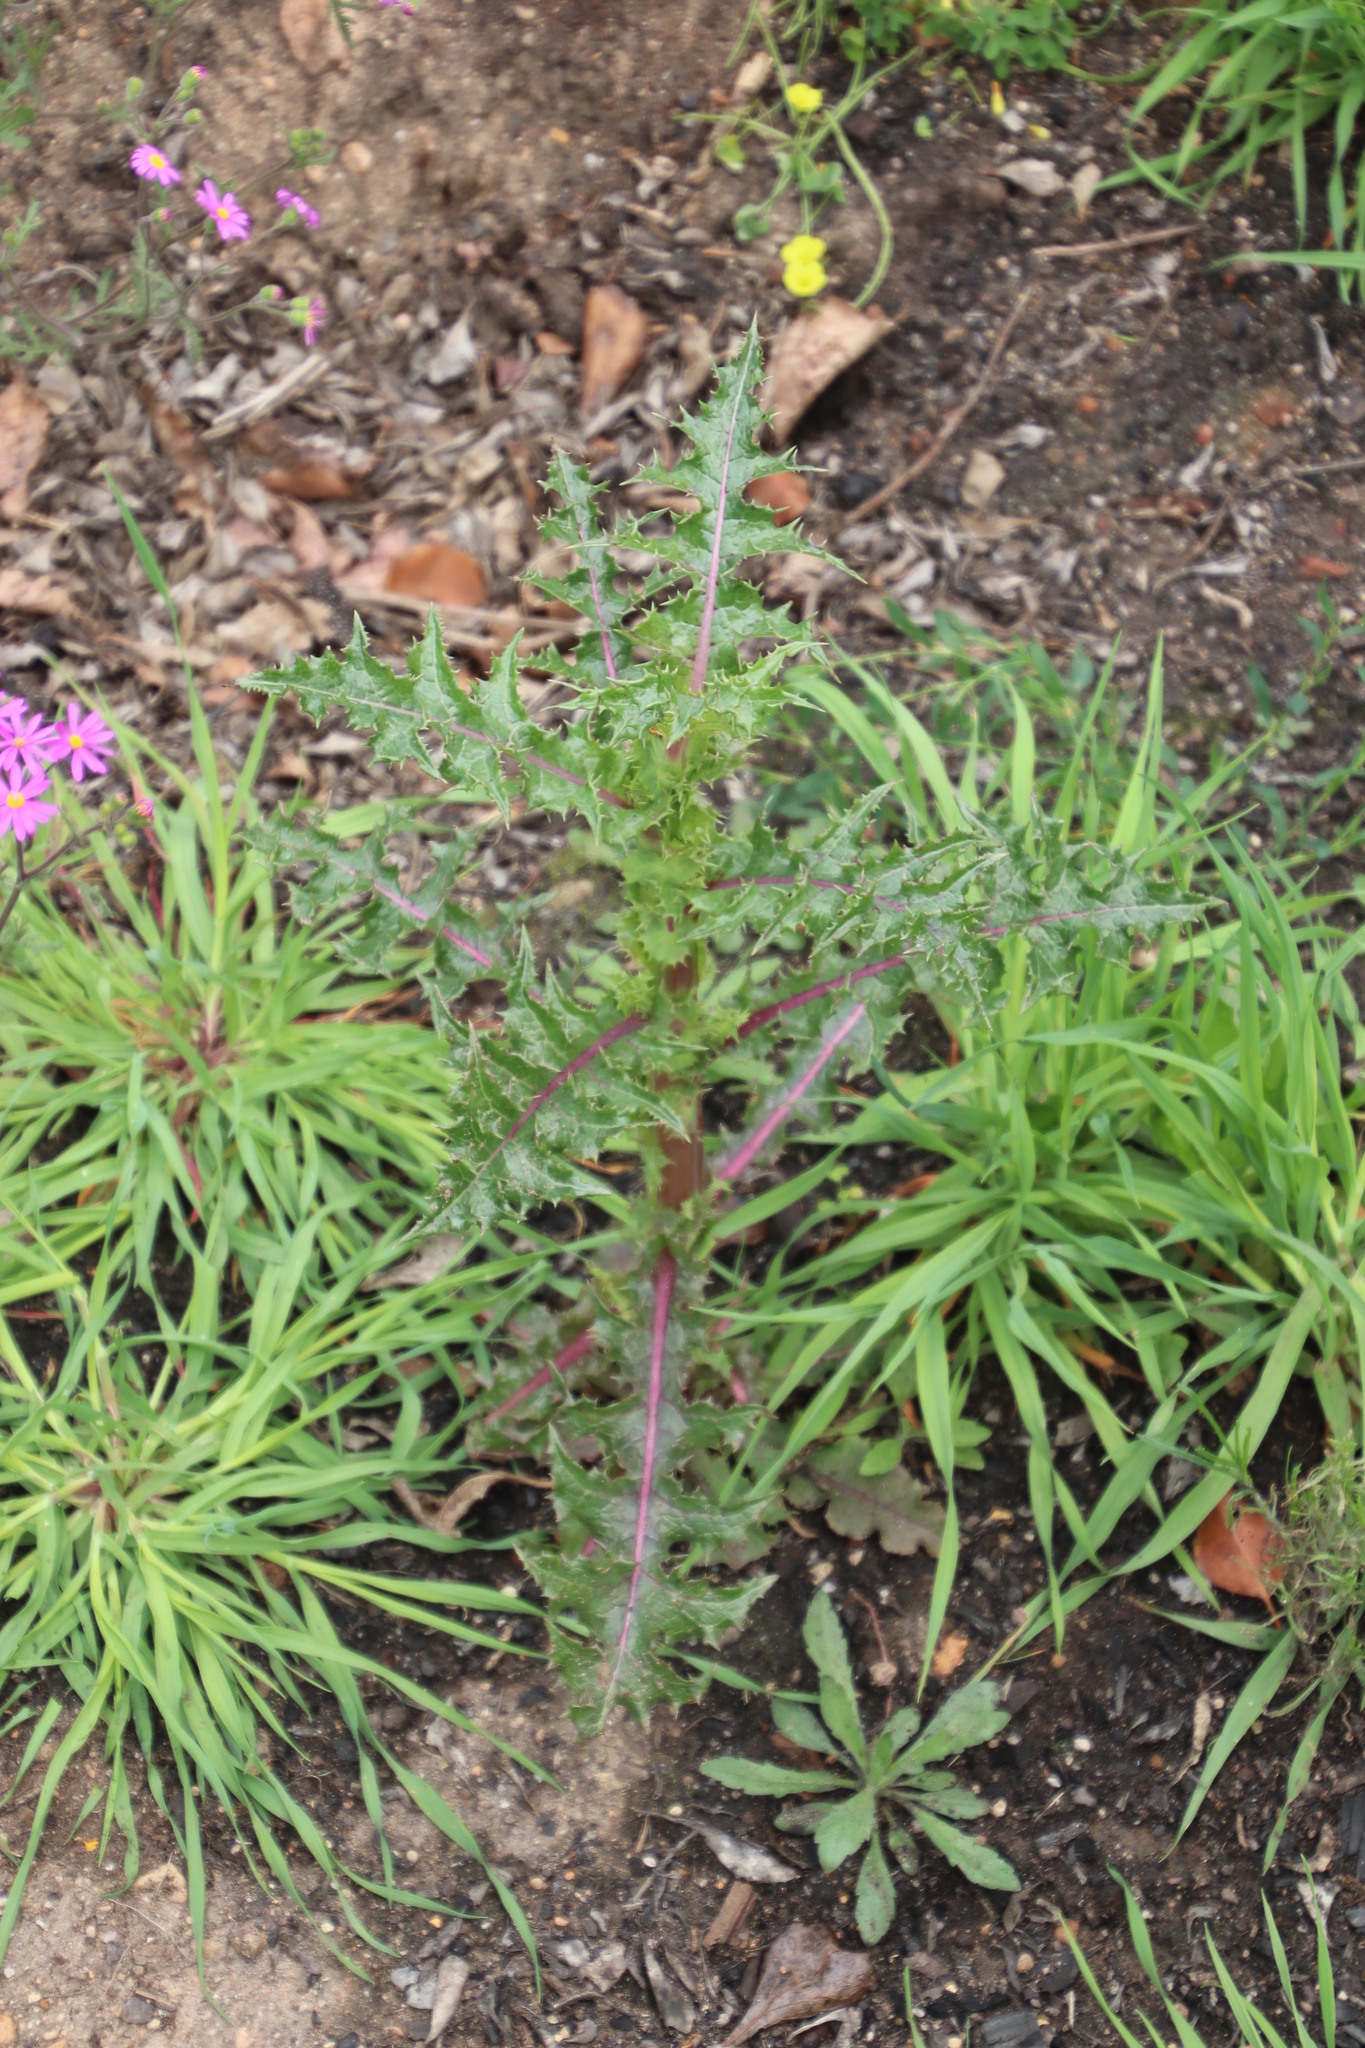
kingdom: Plantae
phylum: Tracheophyta
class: Magnoliopsida
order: Asterales
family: Asteraceae
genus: Sonchus
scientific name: Sonchus asper
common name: Prickly sow-thistle
